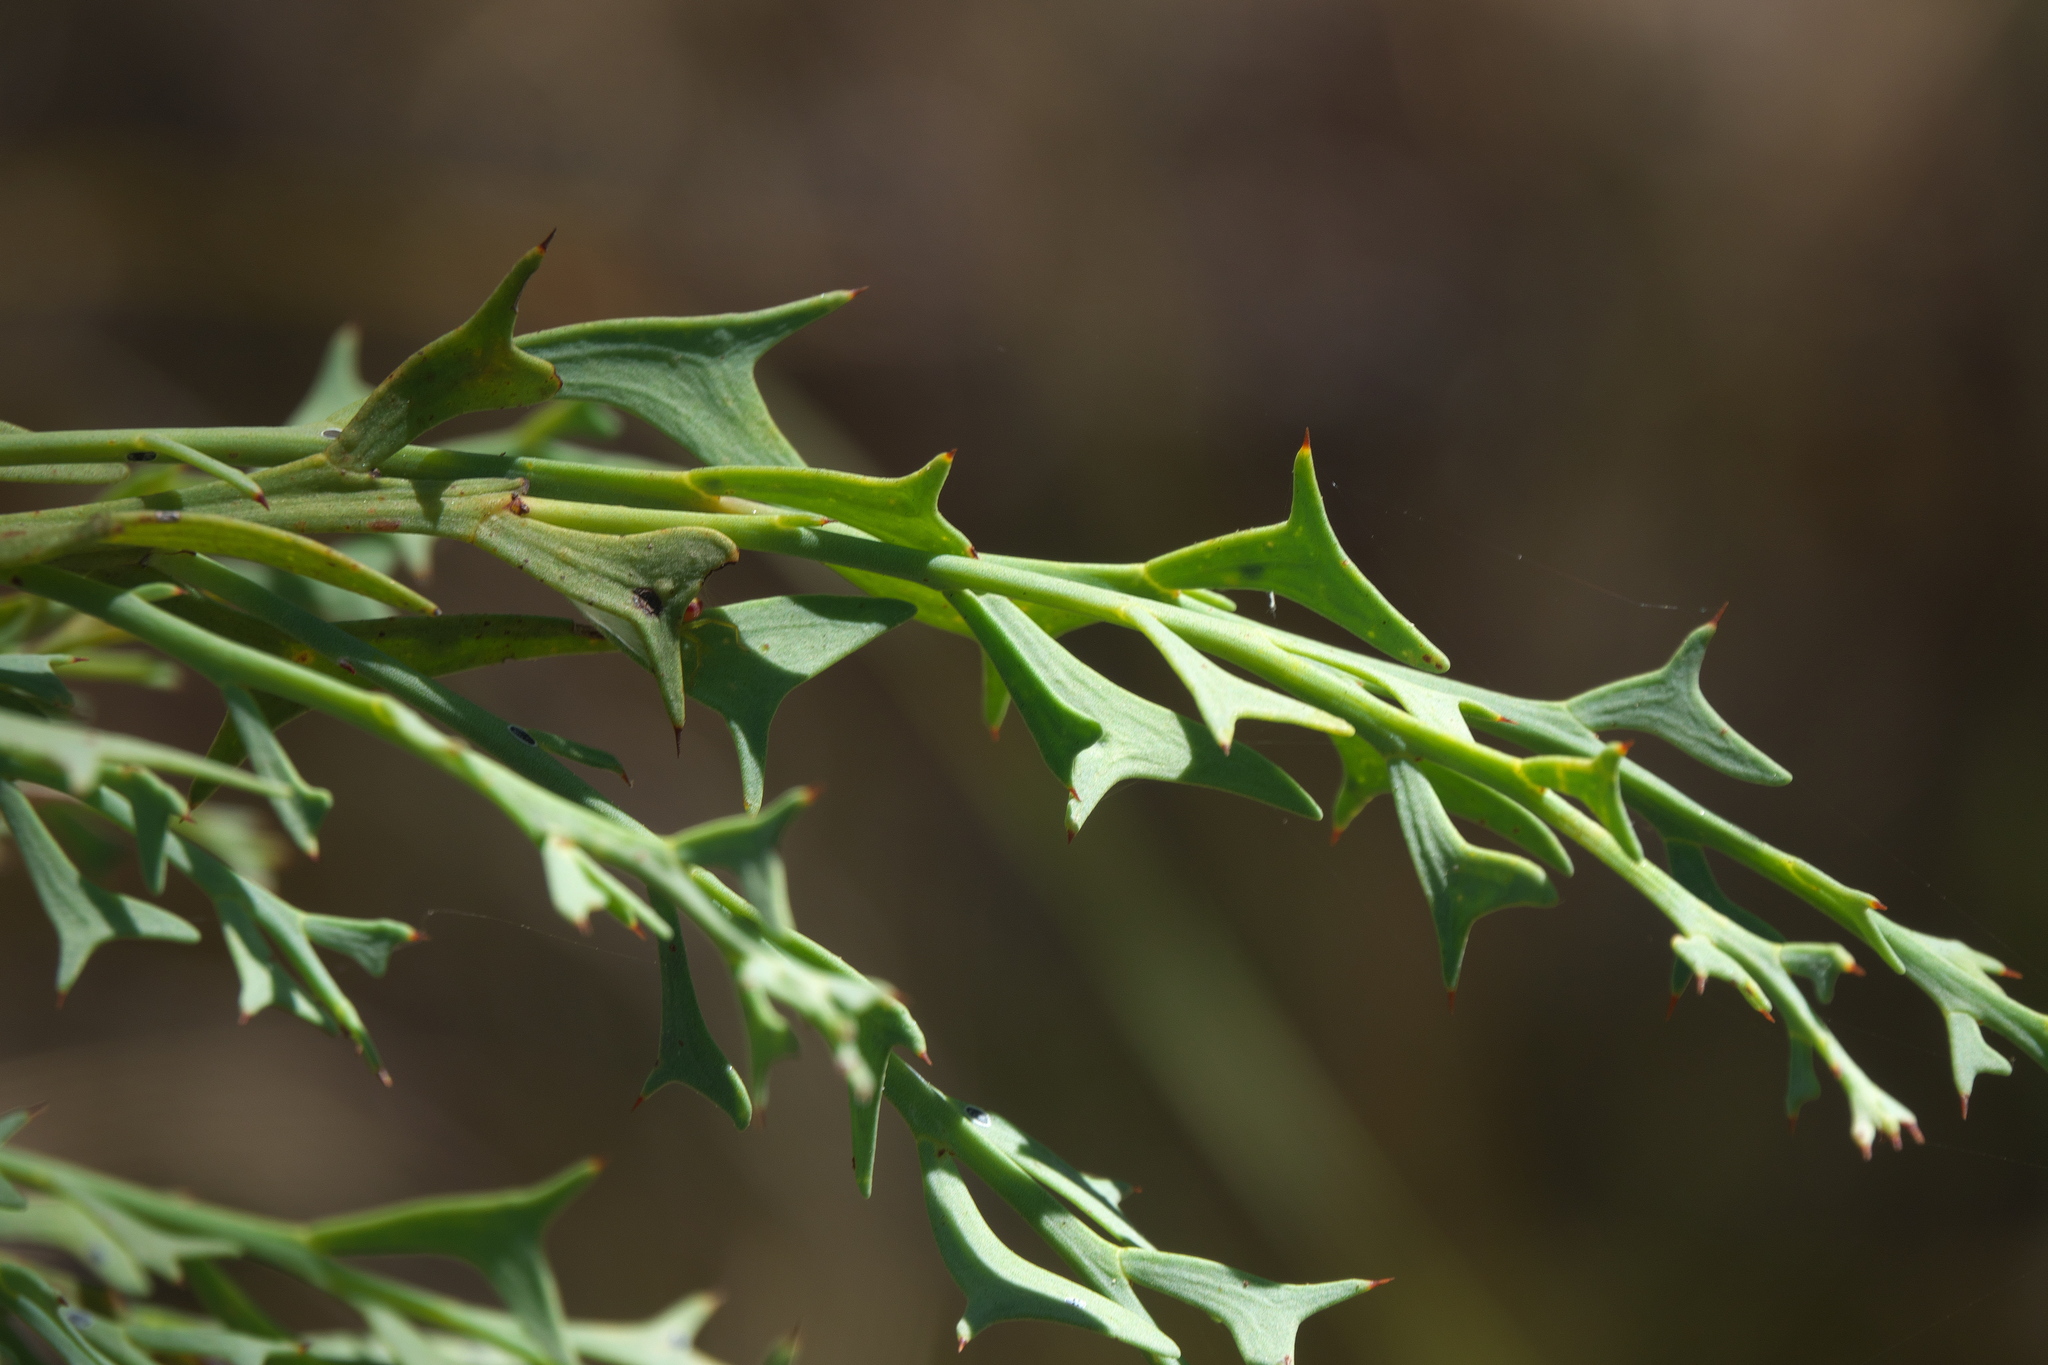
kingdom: Plantae
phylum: Tracheophyta
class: Magnoliopsida
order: Fabales
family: Fabaceae
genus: Daviesia
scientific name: Daviesia physodes
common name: Prickly bitter pea
